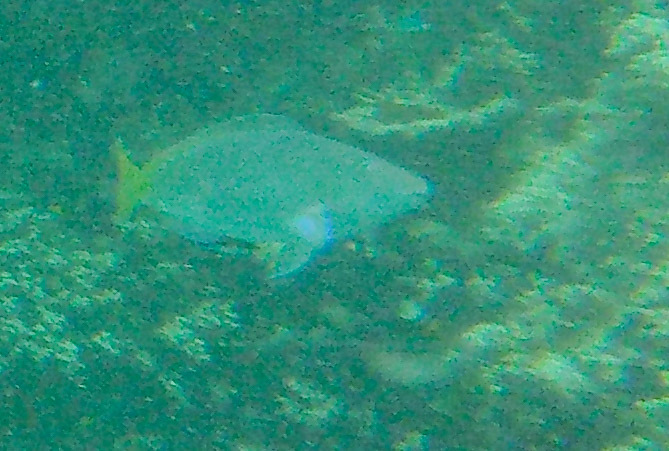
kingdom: Animalia
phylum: Chordata
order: Perciformes
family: Scaridae
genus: Hipposcarus
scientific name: Hipposcarus longiceps
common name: Pacific longnose parrotfish
